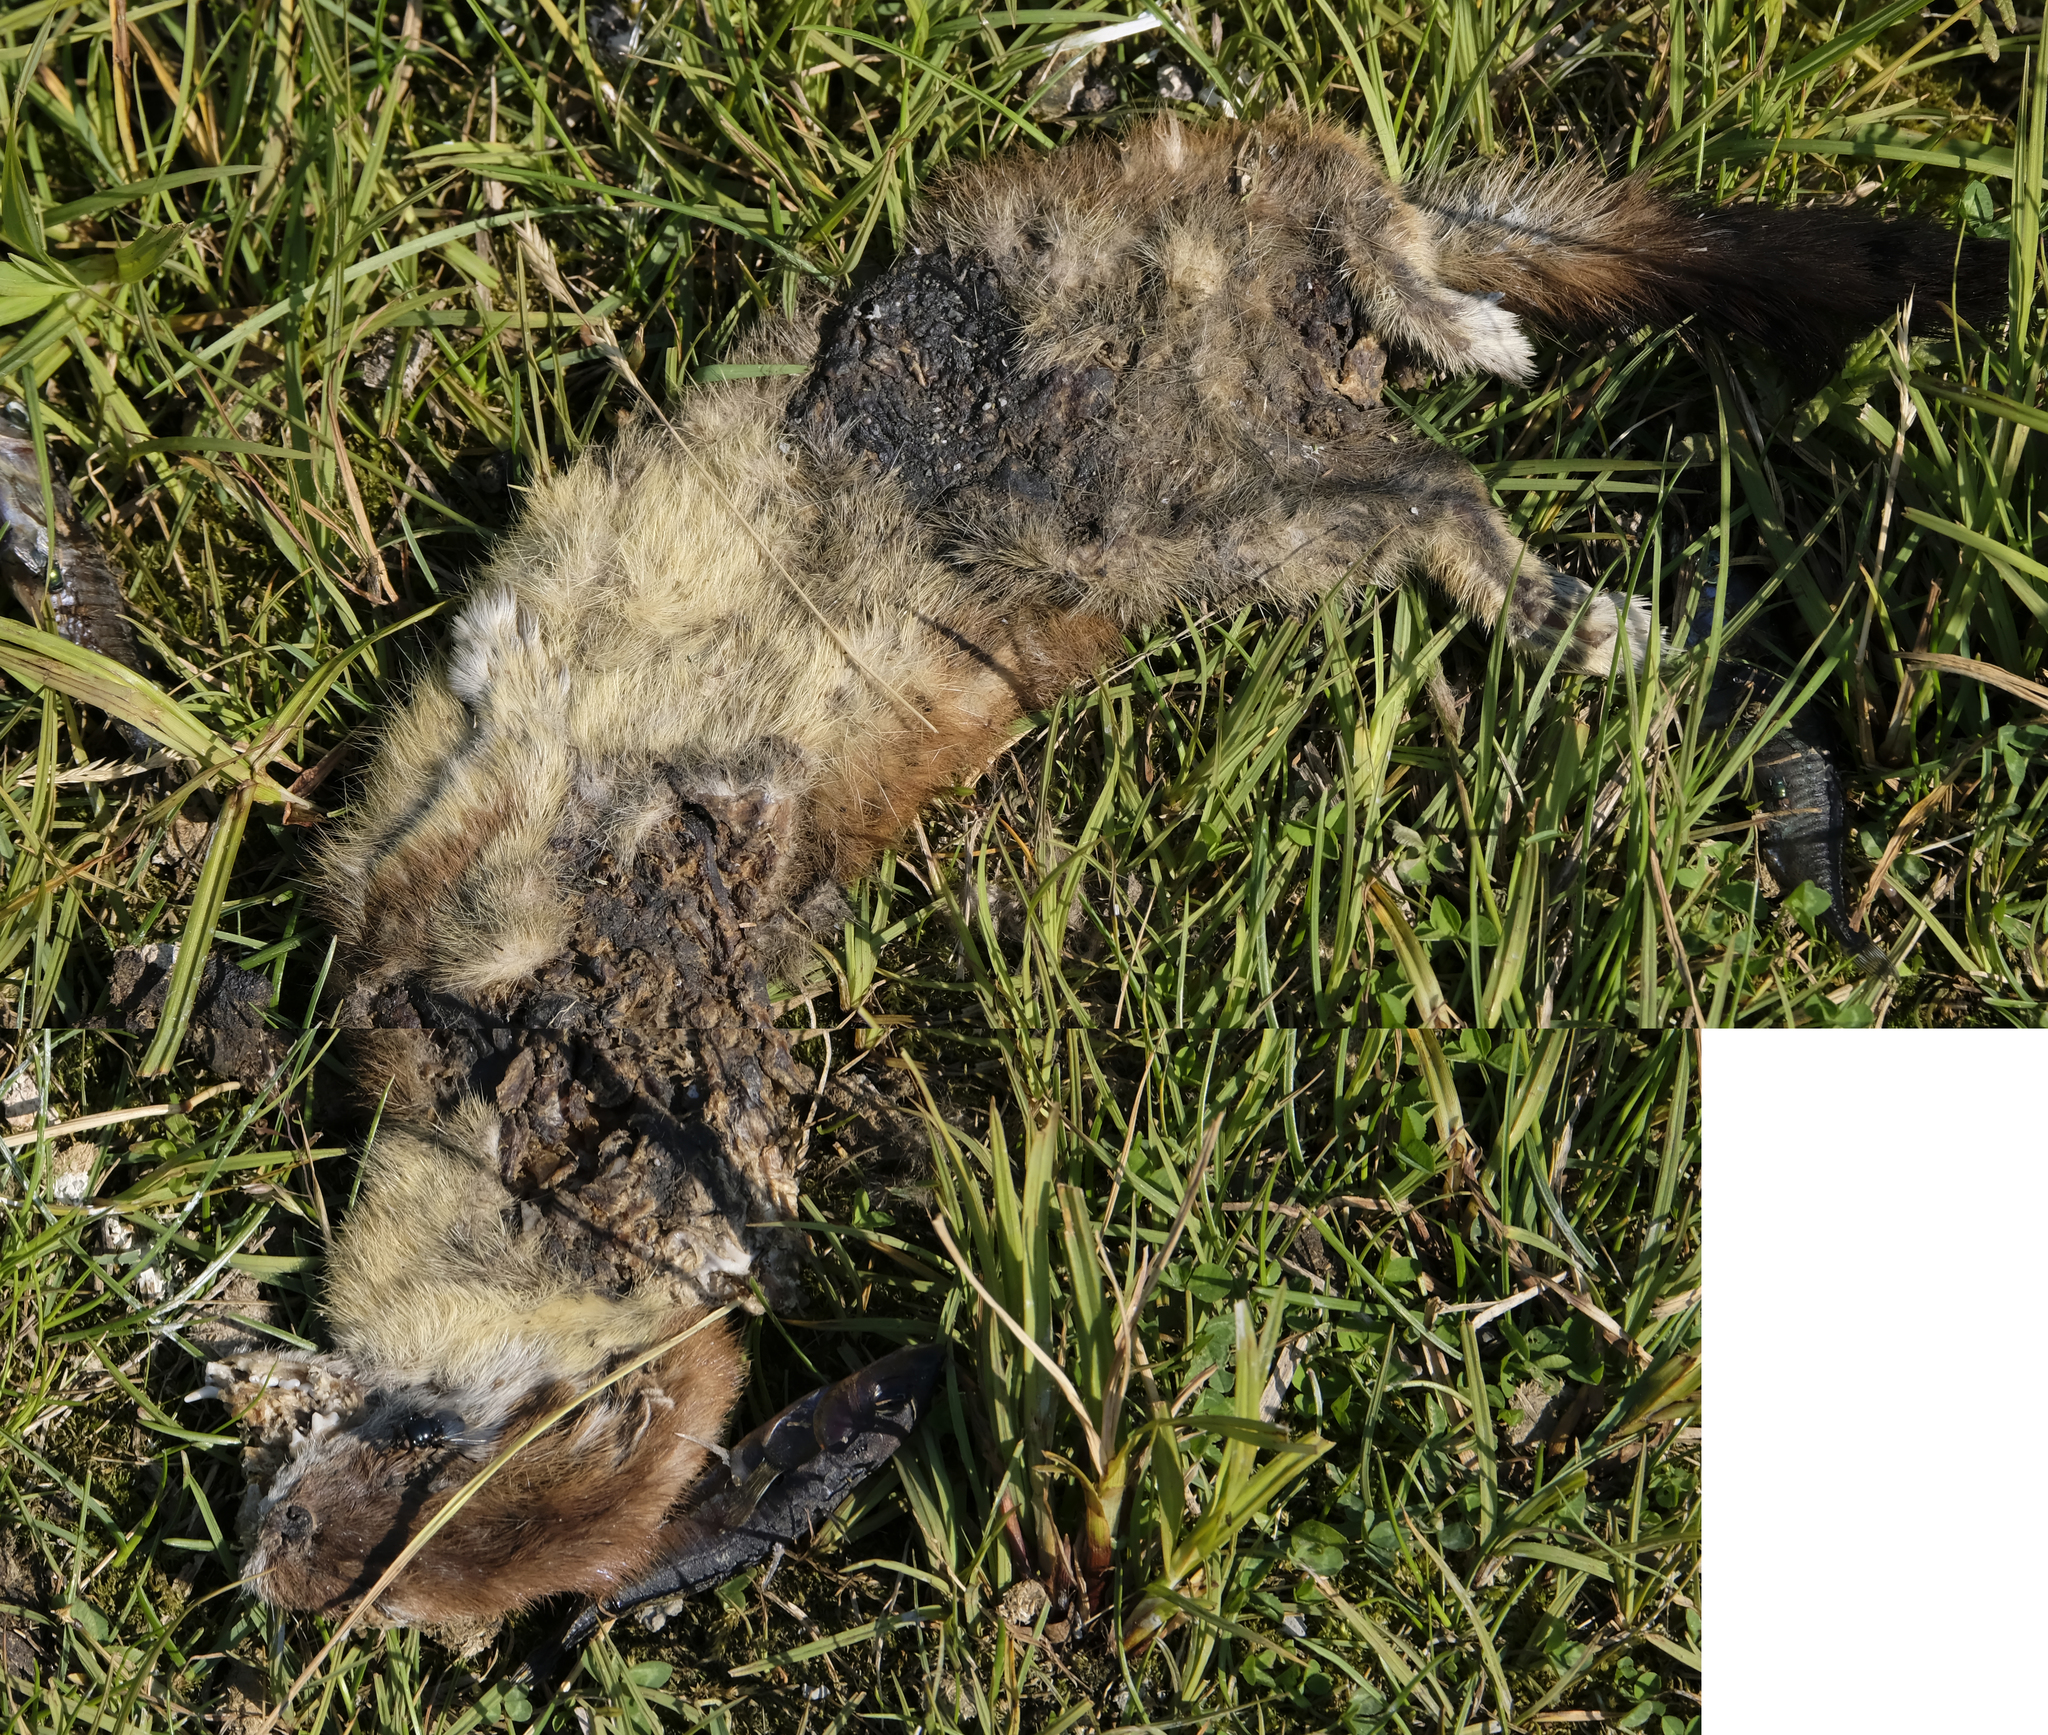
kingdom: Animalia
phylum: Chordata
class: Mammalia
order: Carnivora
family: Mustelidae
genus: Mustela
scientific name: Mustela erminea
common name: Stoat
